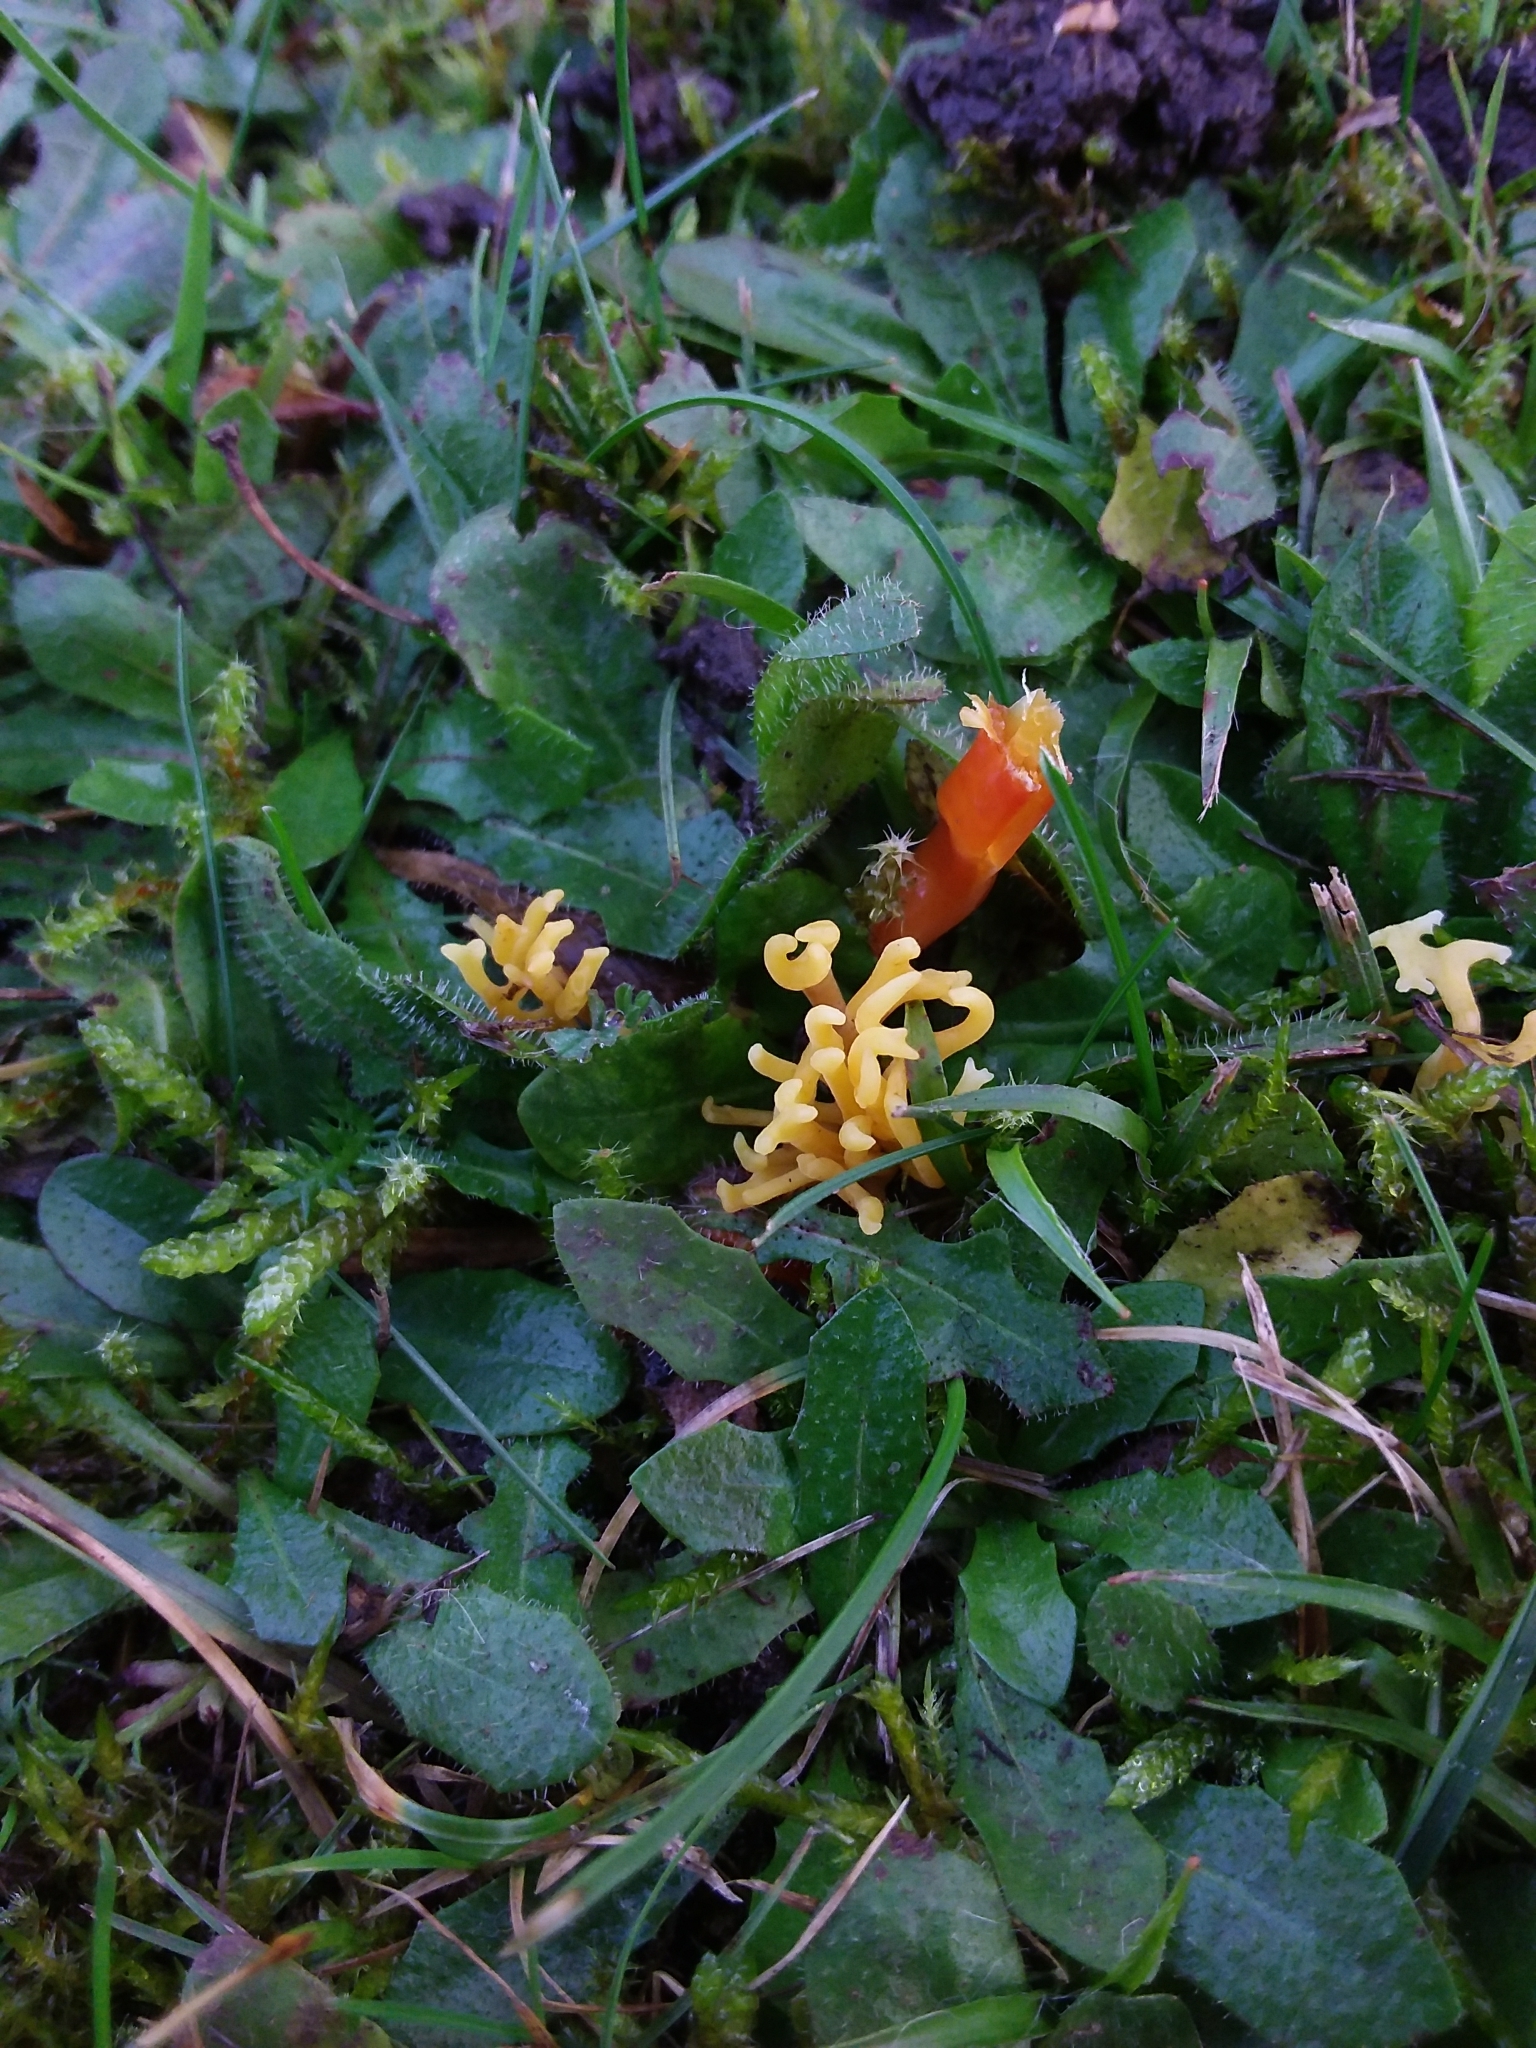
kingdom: Fungi
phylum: Basidiomycota
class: Agaricomycetes
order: Agaricales
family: Clavariaceae
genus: Clavulinopsis
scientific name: Clavulinopsis corniculata
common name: Meadow coral
